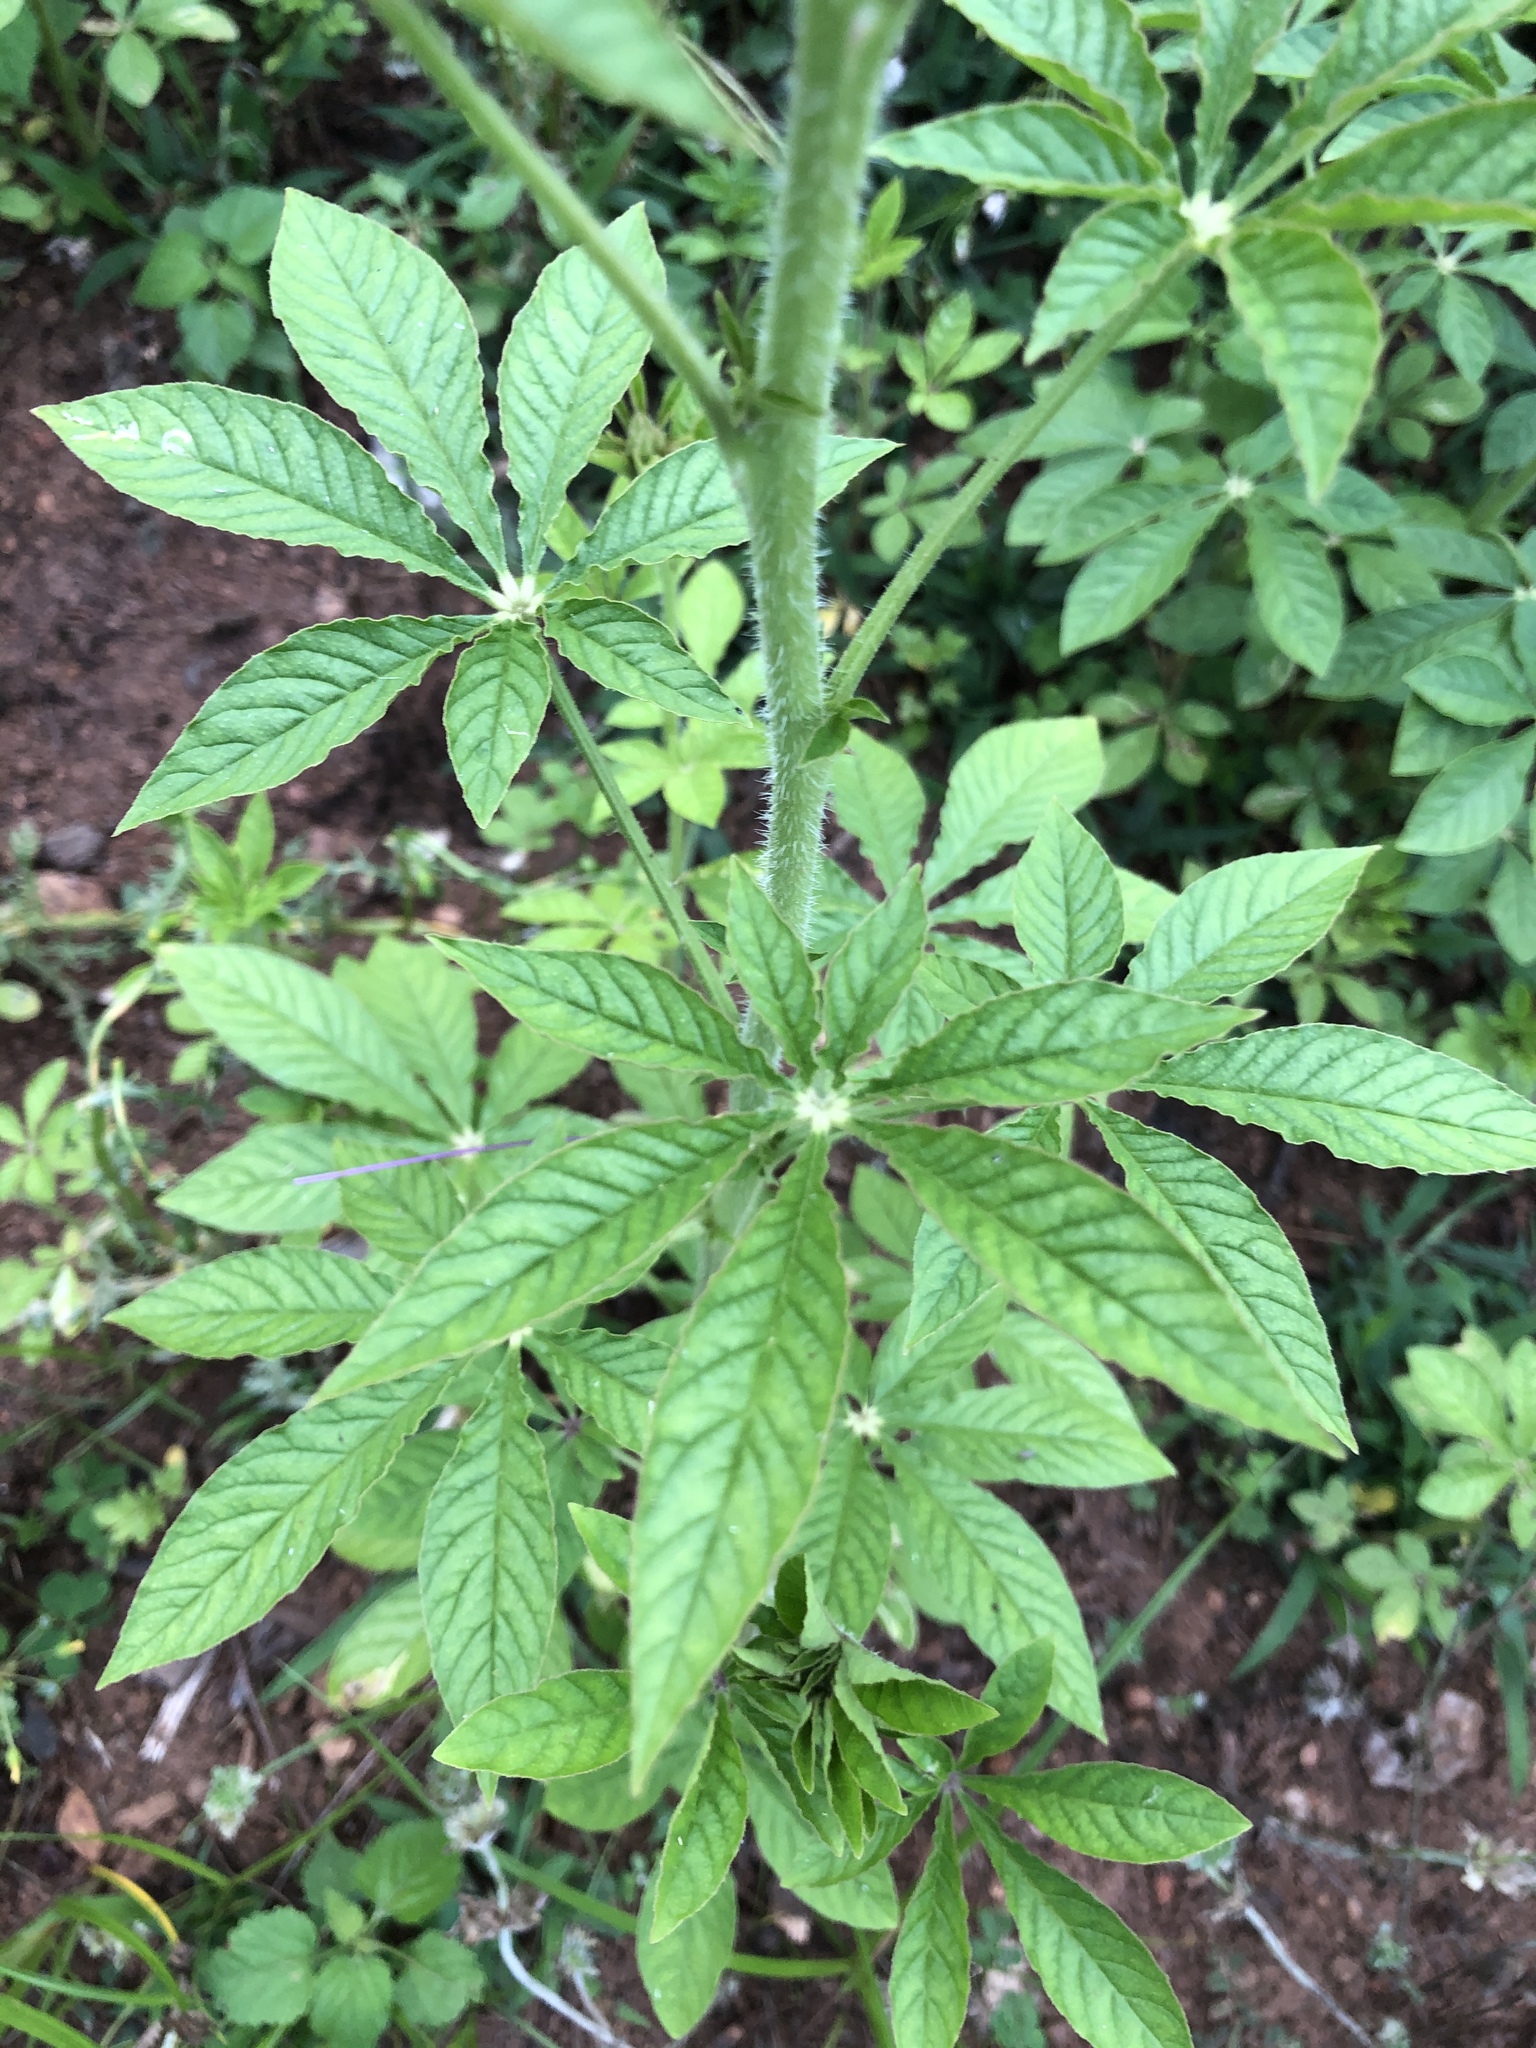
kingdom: Plantae
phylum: Tracheophyta
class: Magnoliopsida
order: Brassicales
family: Cleomaceae
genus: Tarenaya
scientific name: Tarenaya houtteana
